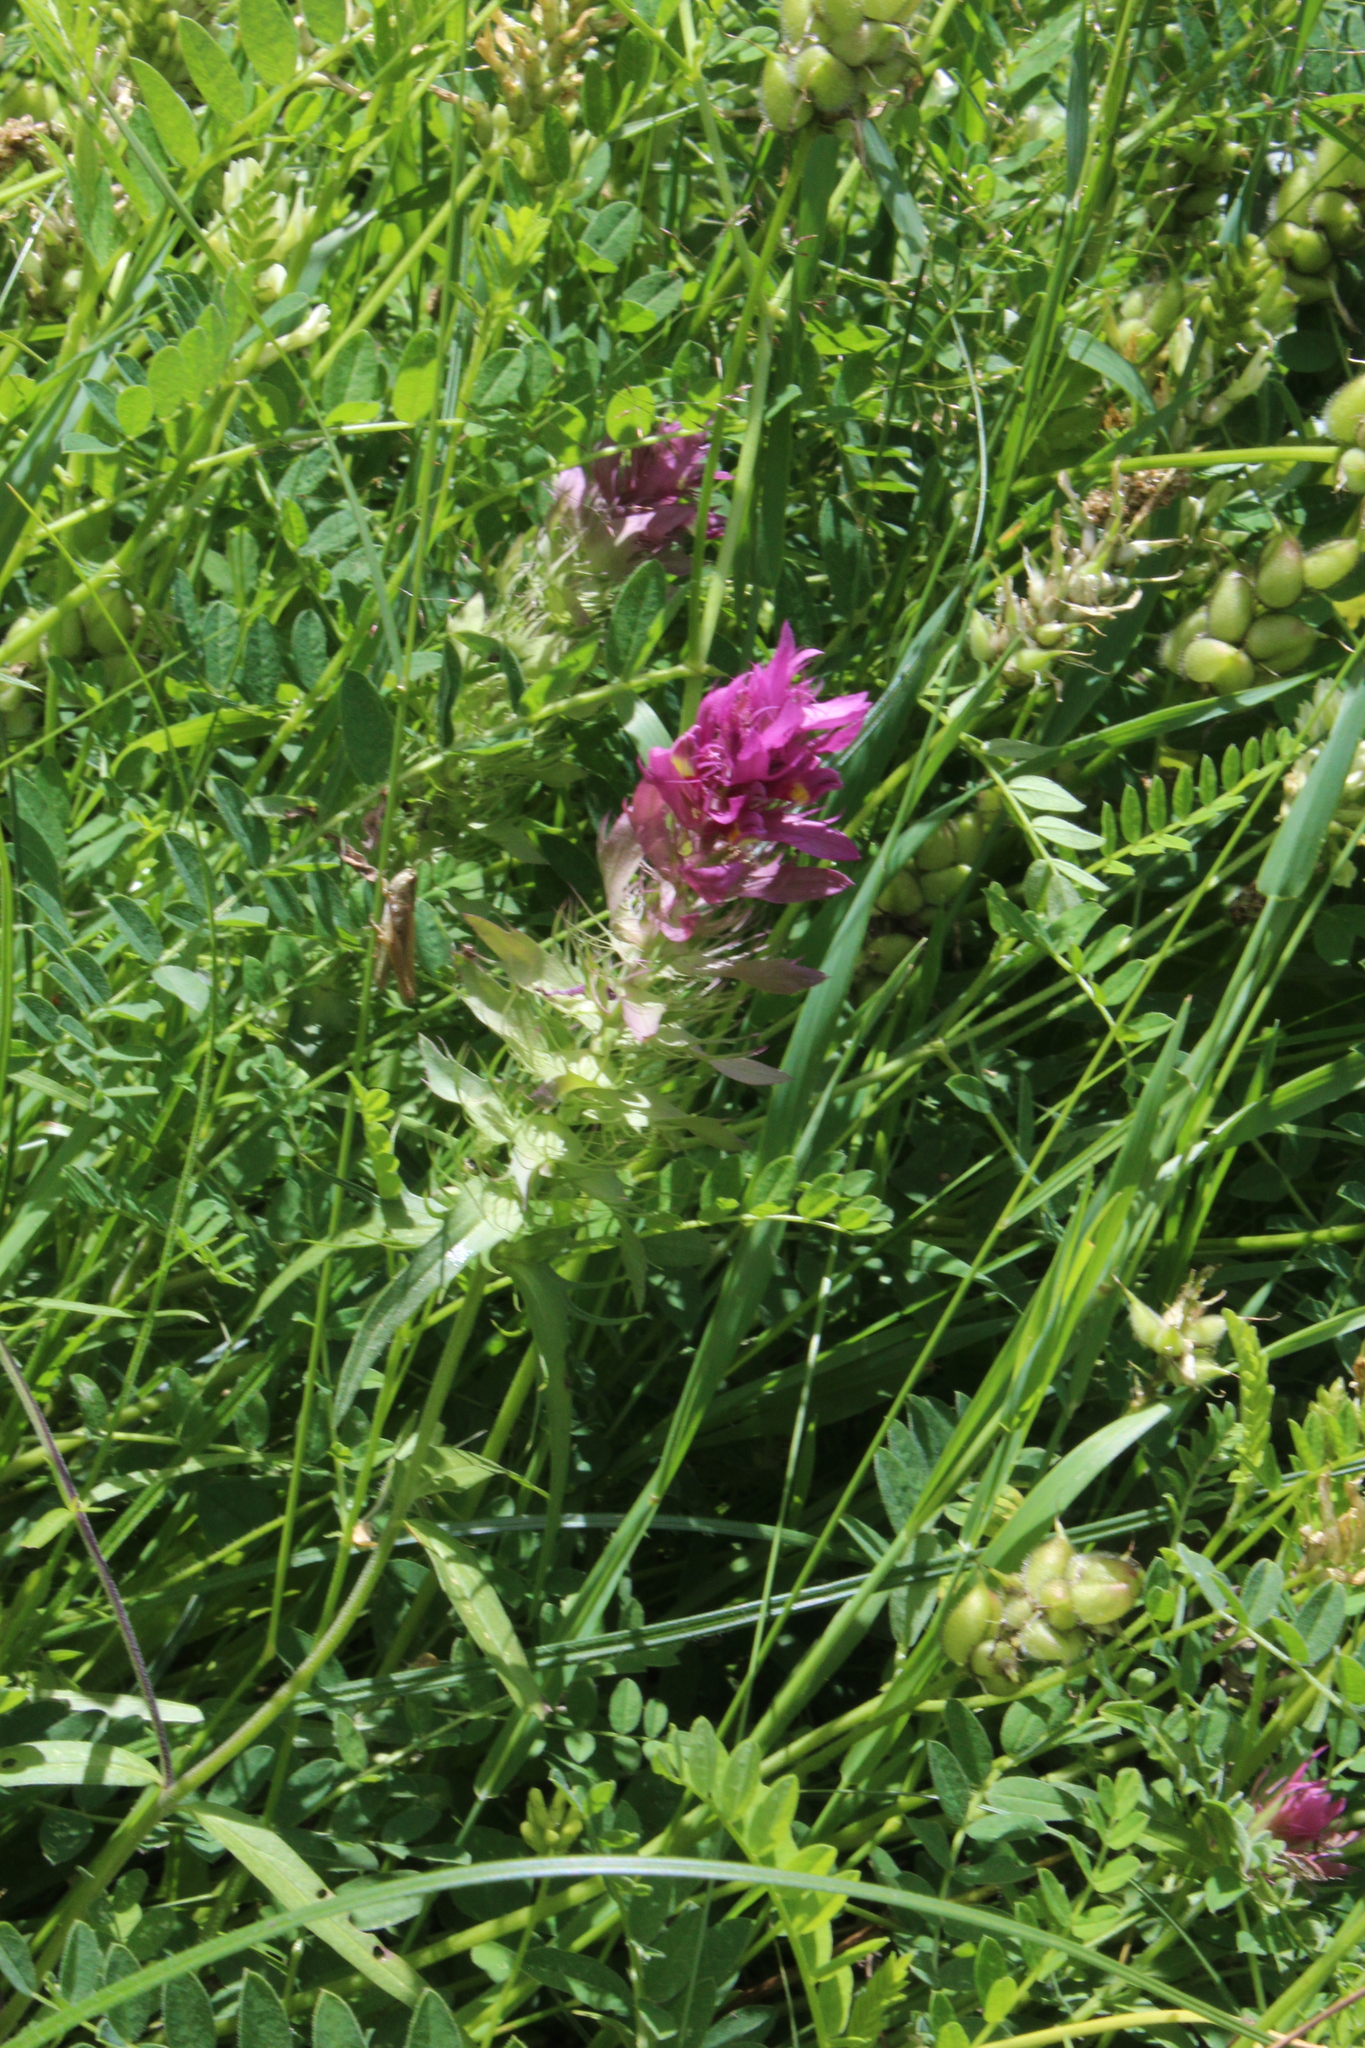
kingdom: Plantae
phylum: Tracheophyta
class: Magnoliopsida
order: Lamiales
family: Orobanchaceae
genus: Melampyrum
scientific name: Melampyrum arvense
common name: Field cow-wheat
